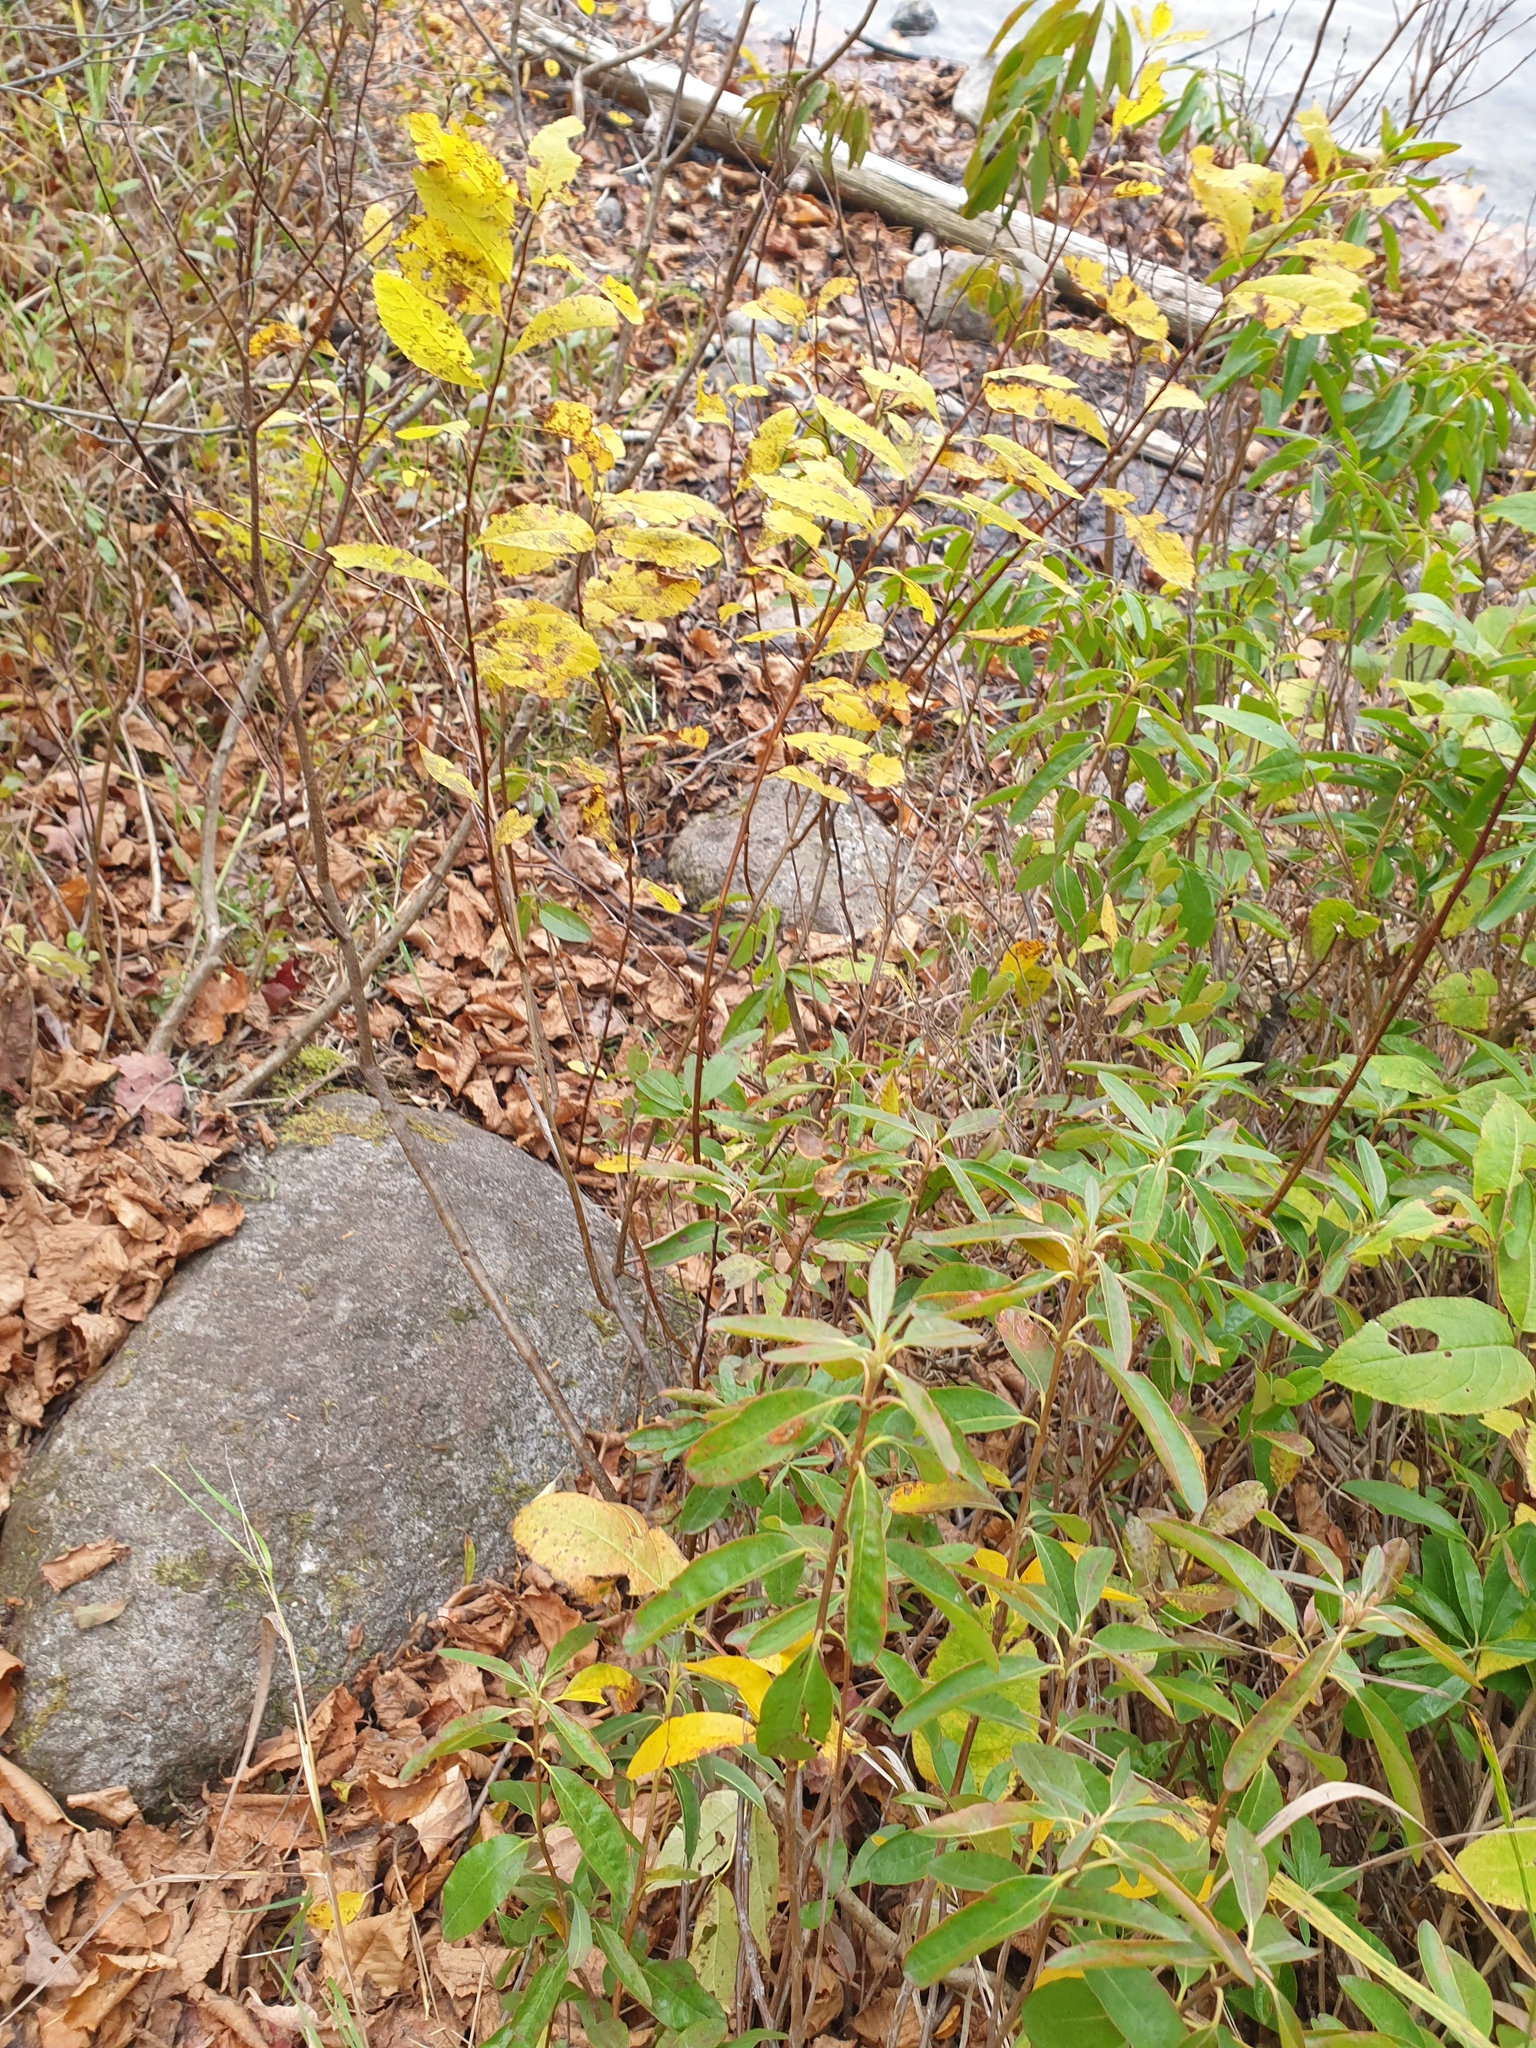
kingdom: Plantae
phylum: Tracheophyta
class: Magnoliopsida
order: Ericales
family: Ericaceae
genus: Kalmia
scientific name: Kalmia angustifolia
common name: Sheep-laurel
